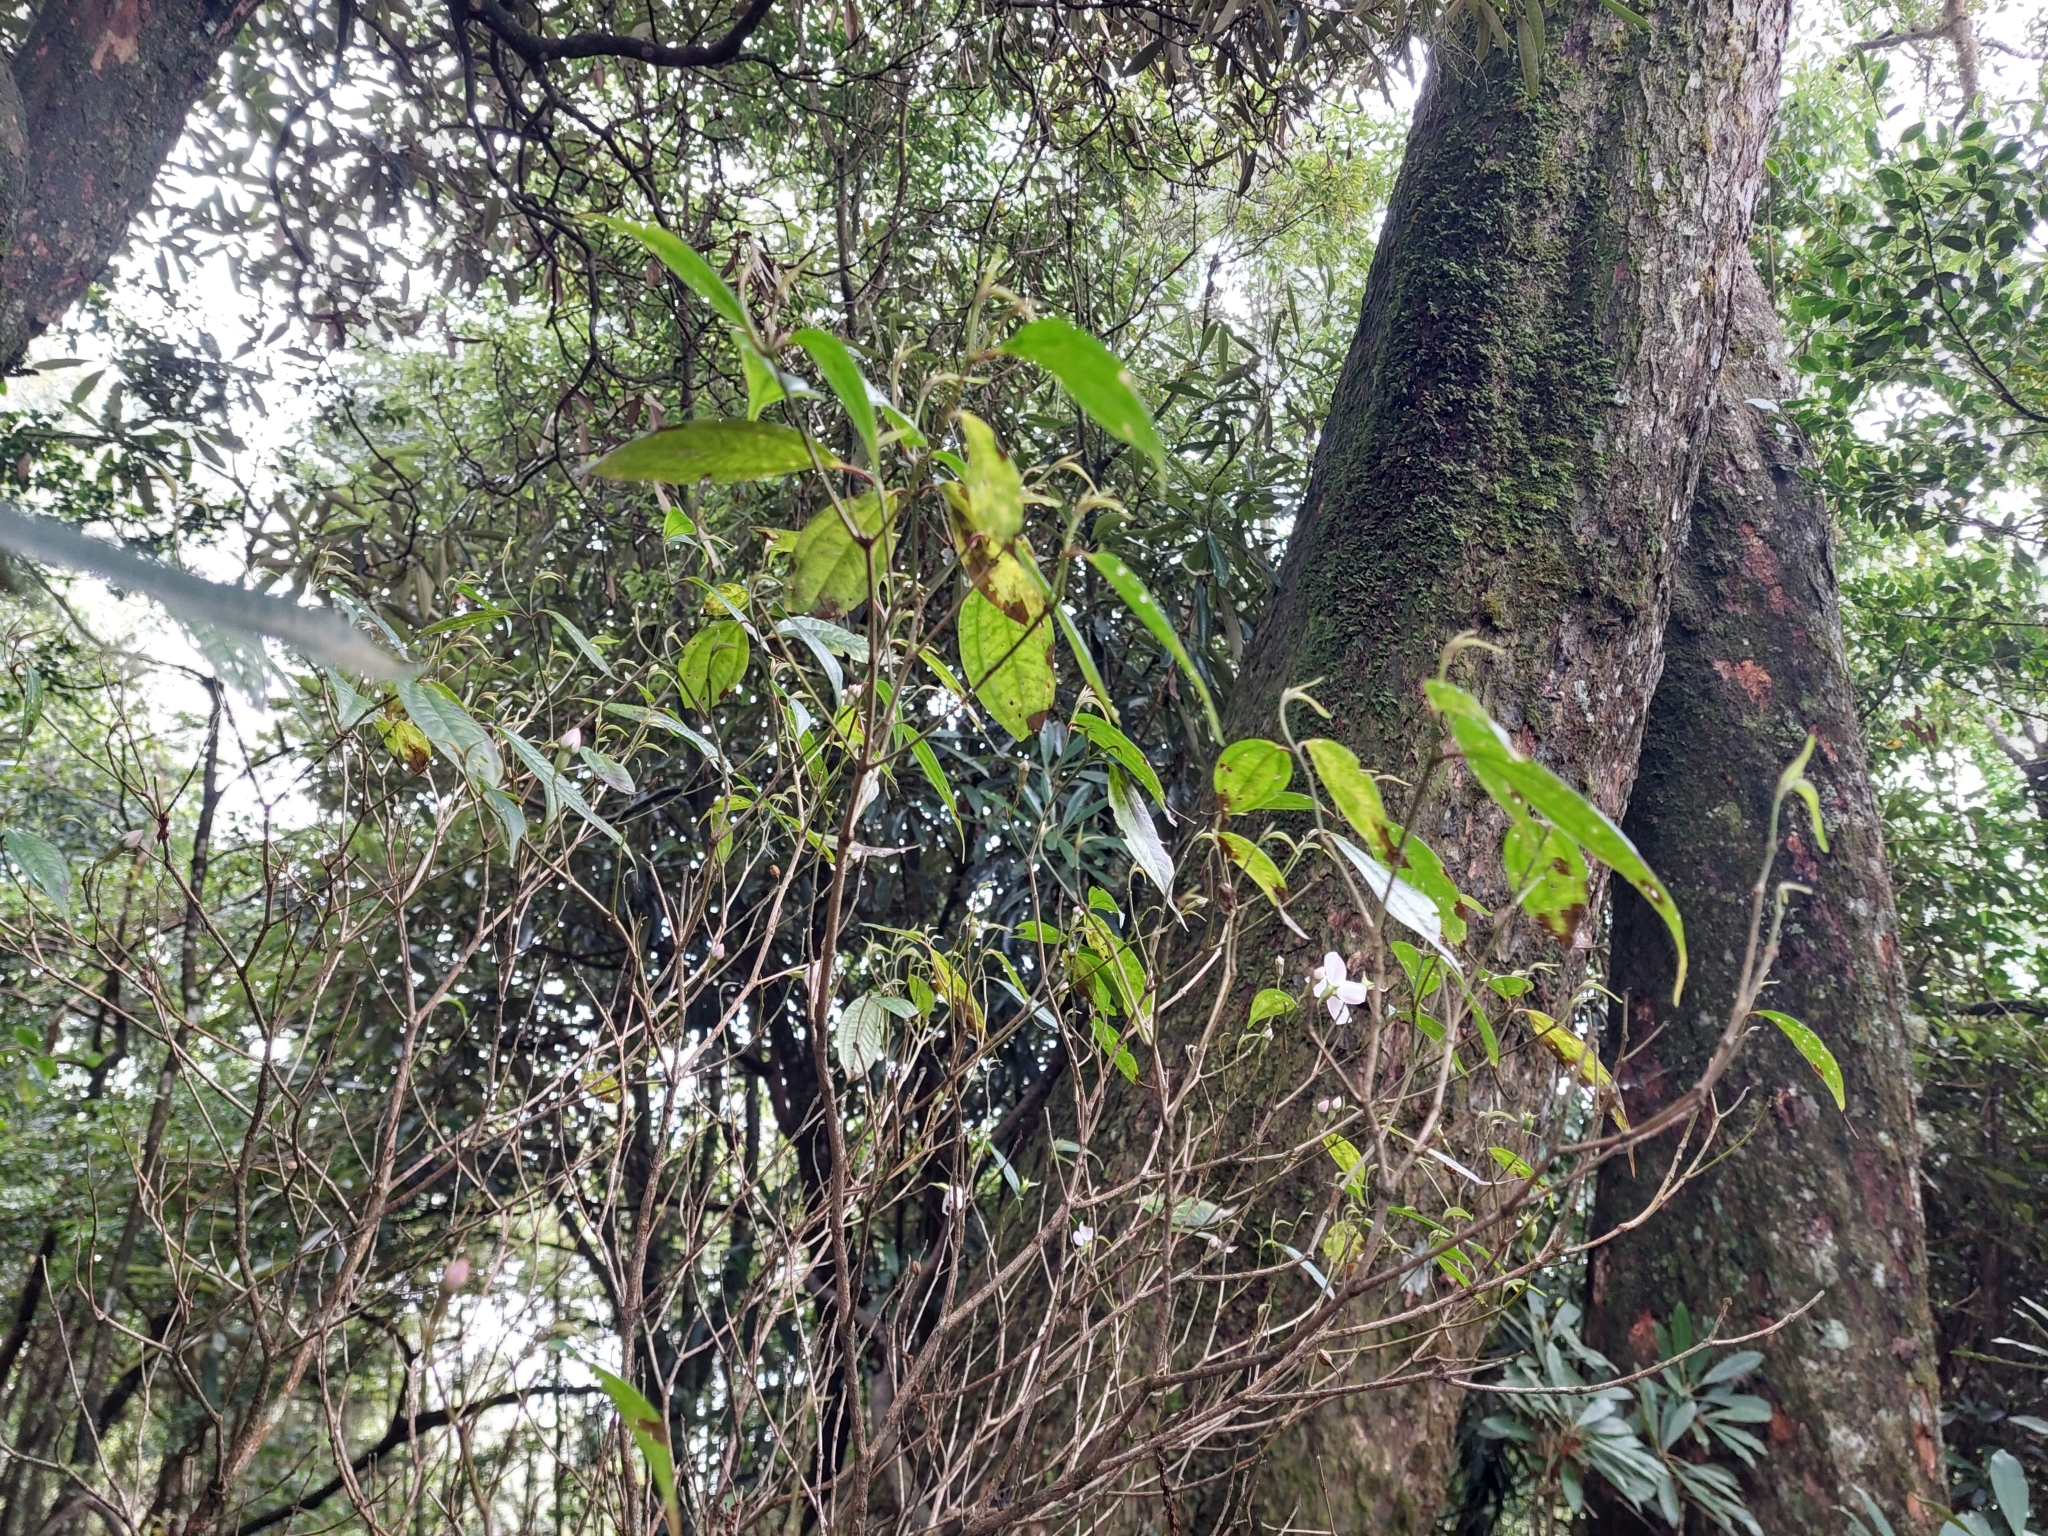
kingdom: Plantae
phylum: Tracheophyta
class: Magnoliopsida
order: Myrtales
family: Melastomataceae
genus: Barthea
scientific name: Barthea barthei
